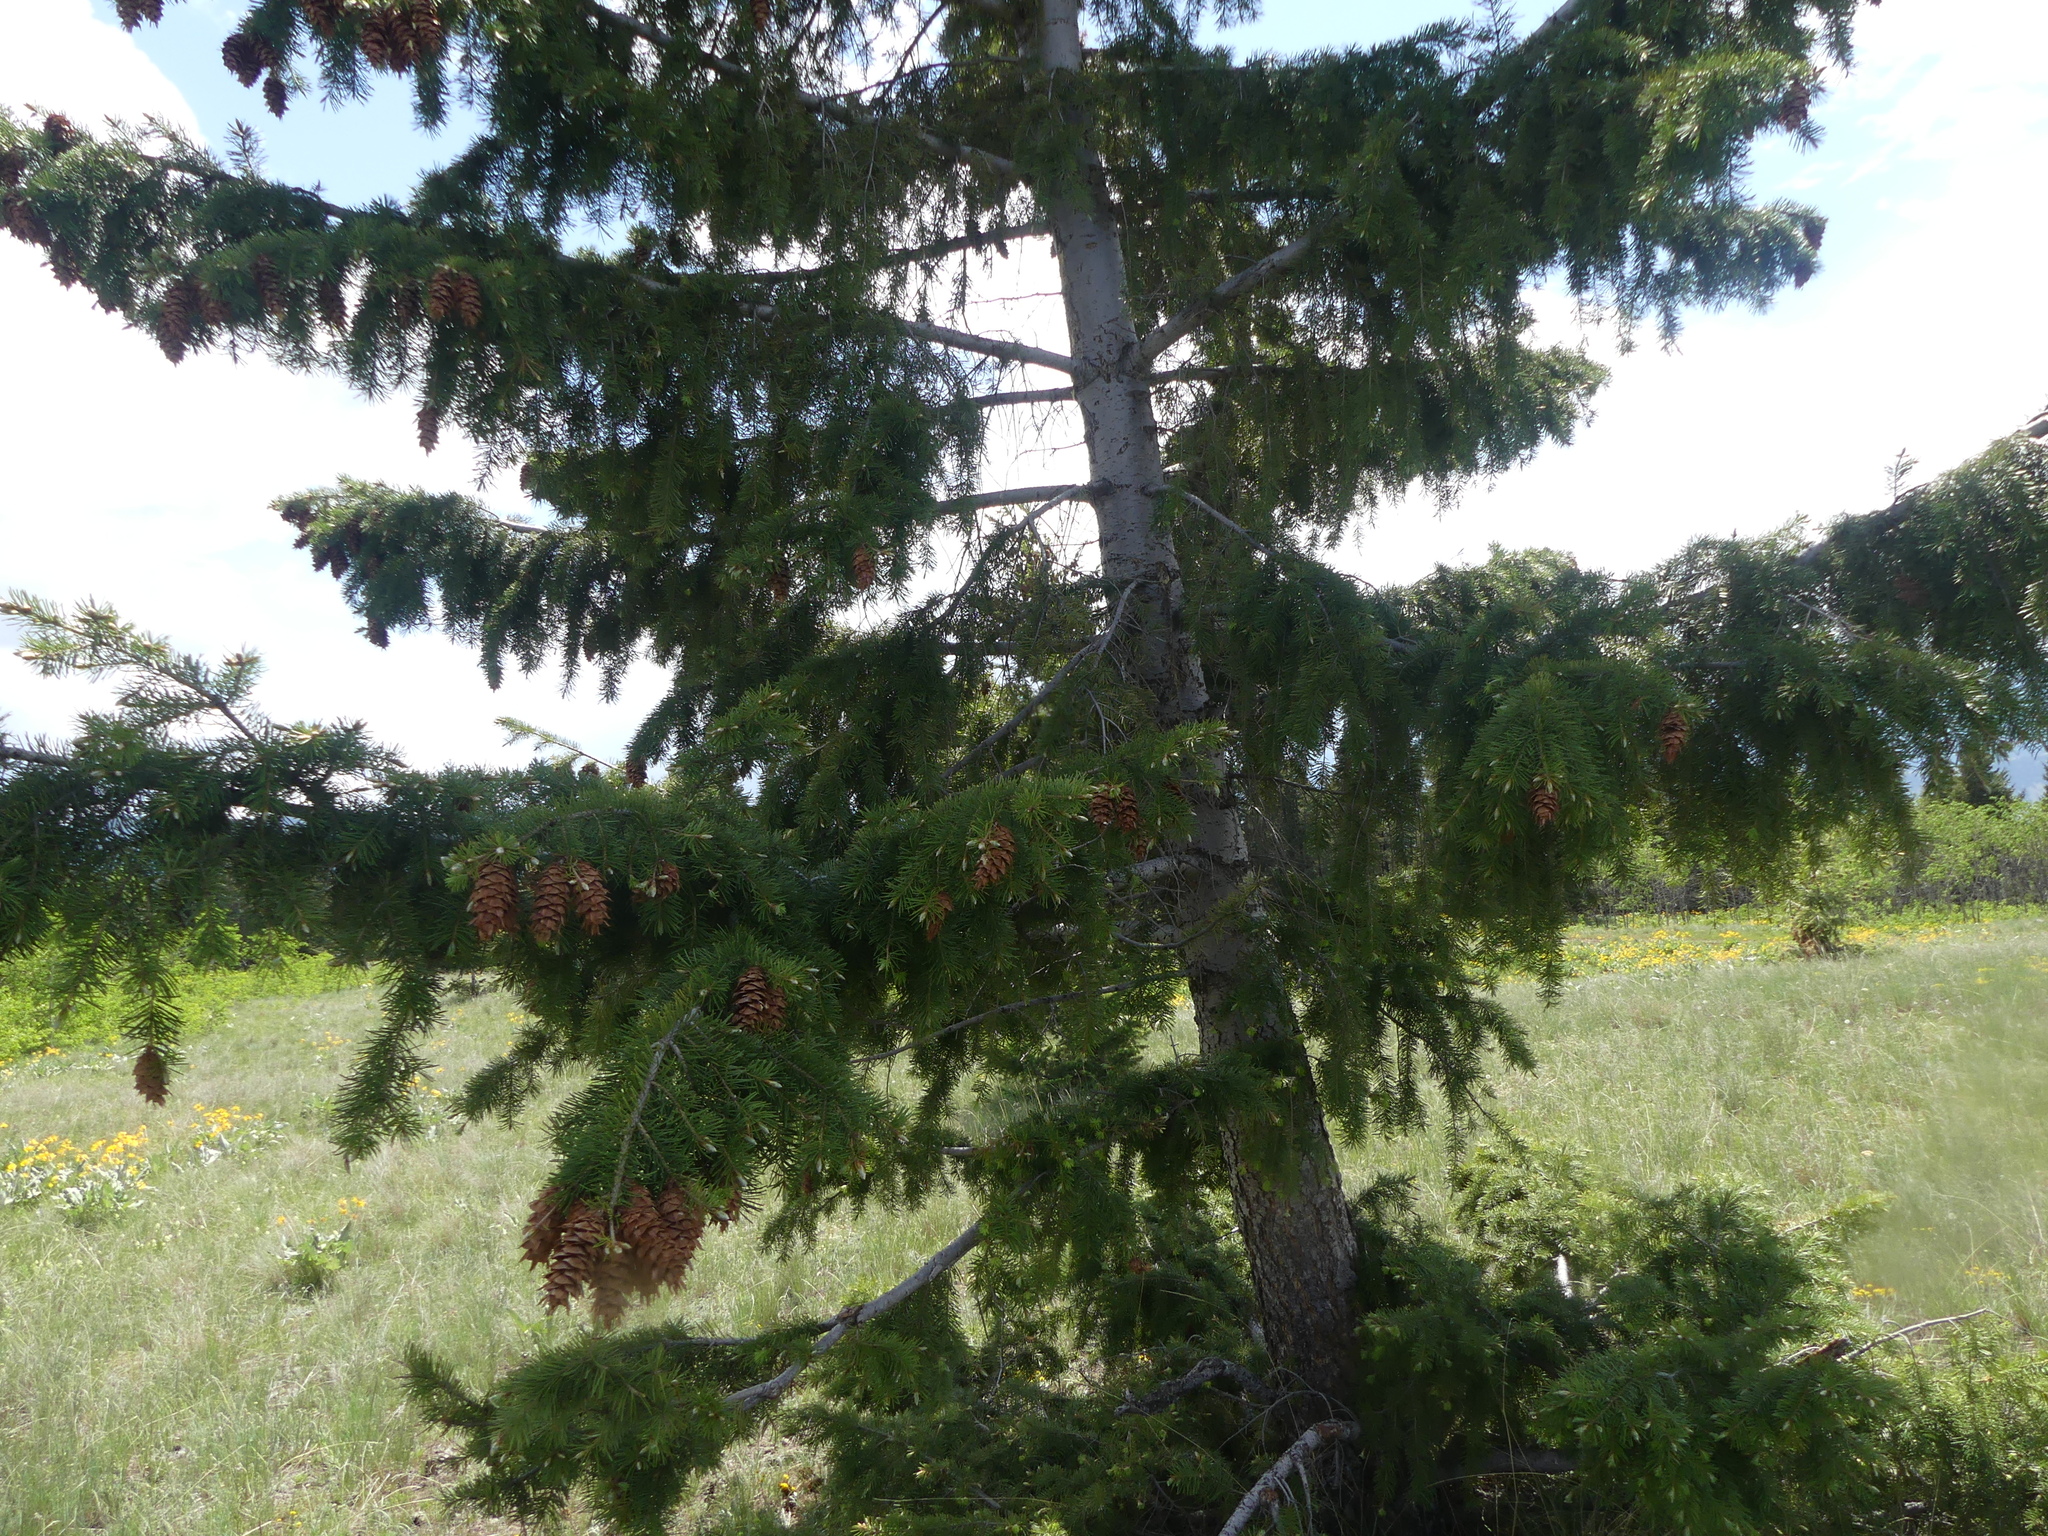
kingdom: Plantae
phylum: Tracheophyta
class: Pinopsida
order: Pinales
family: Pinaceae
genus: Pseudotsuga
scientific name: Pseudotsuga menziesii
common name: Douglas fir
